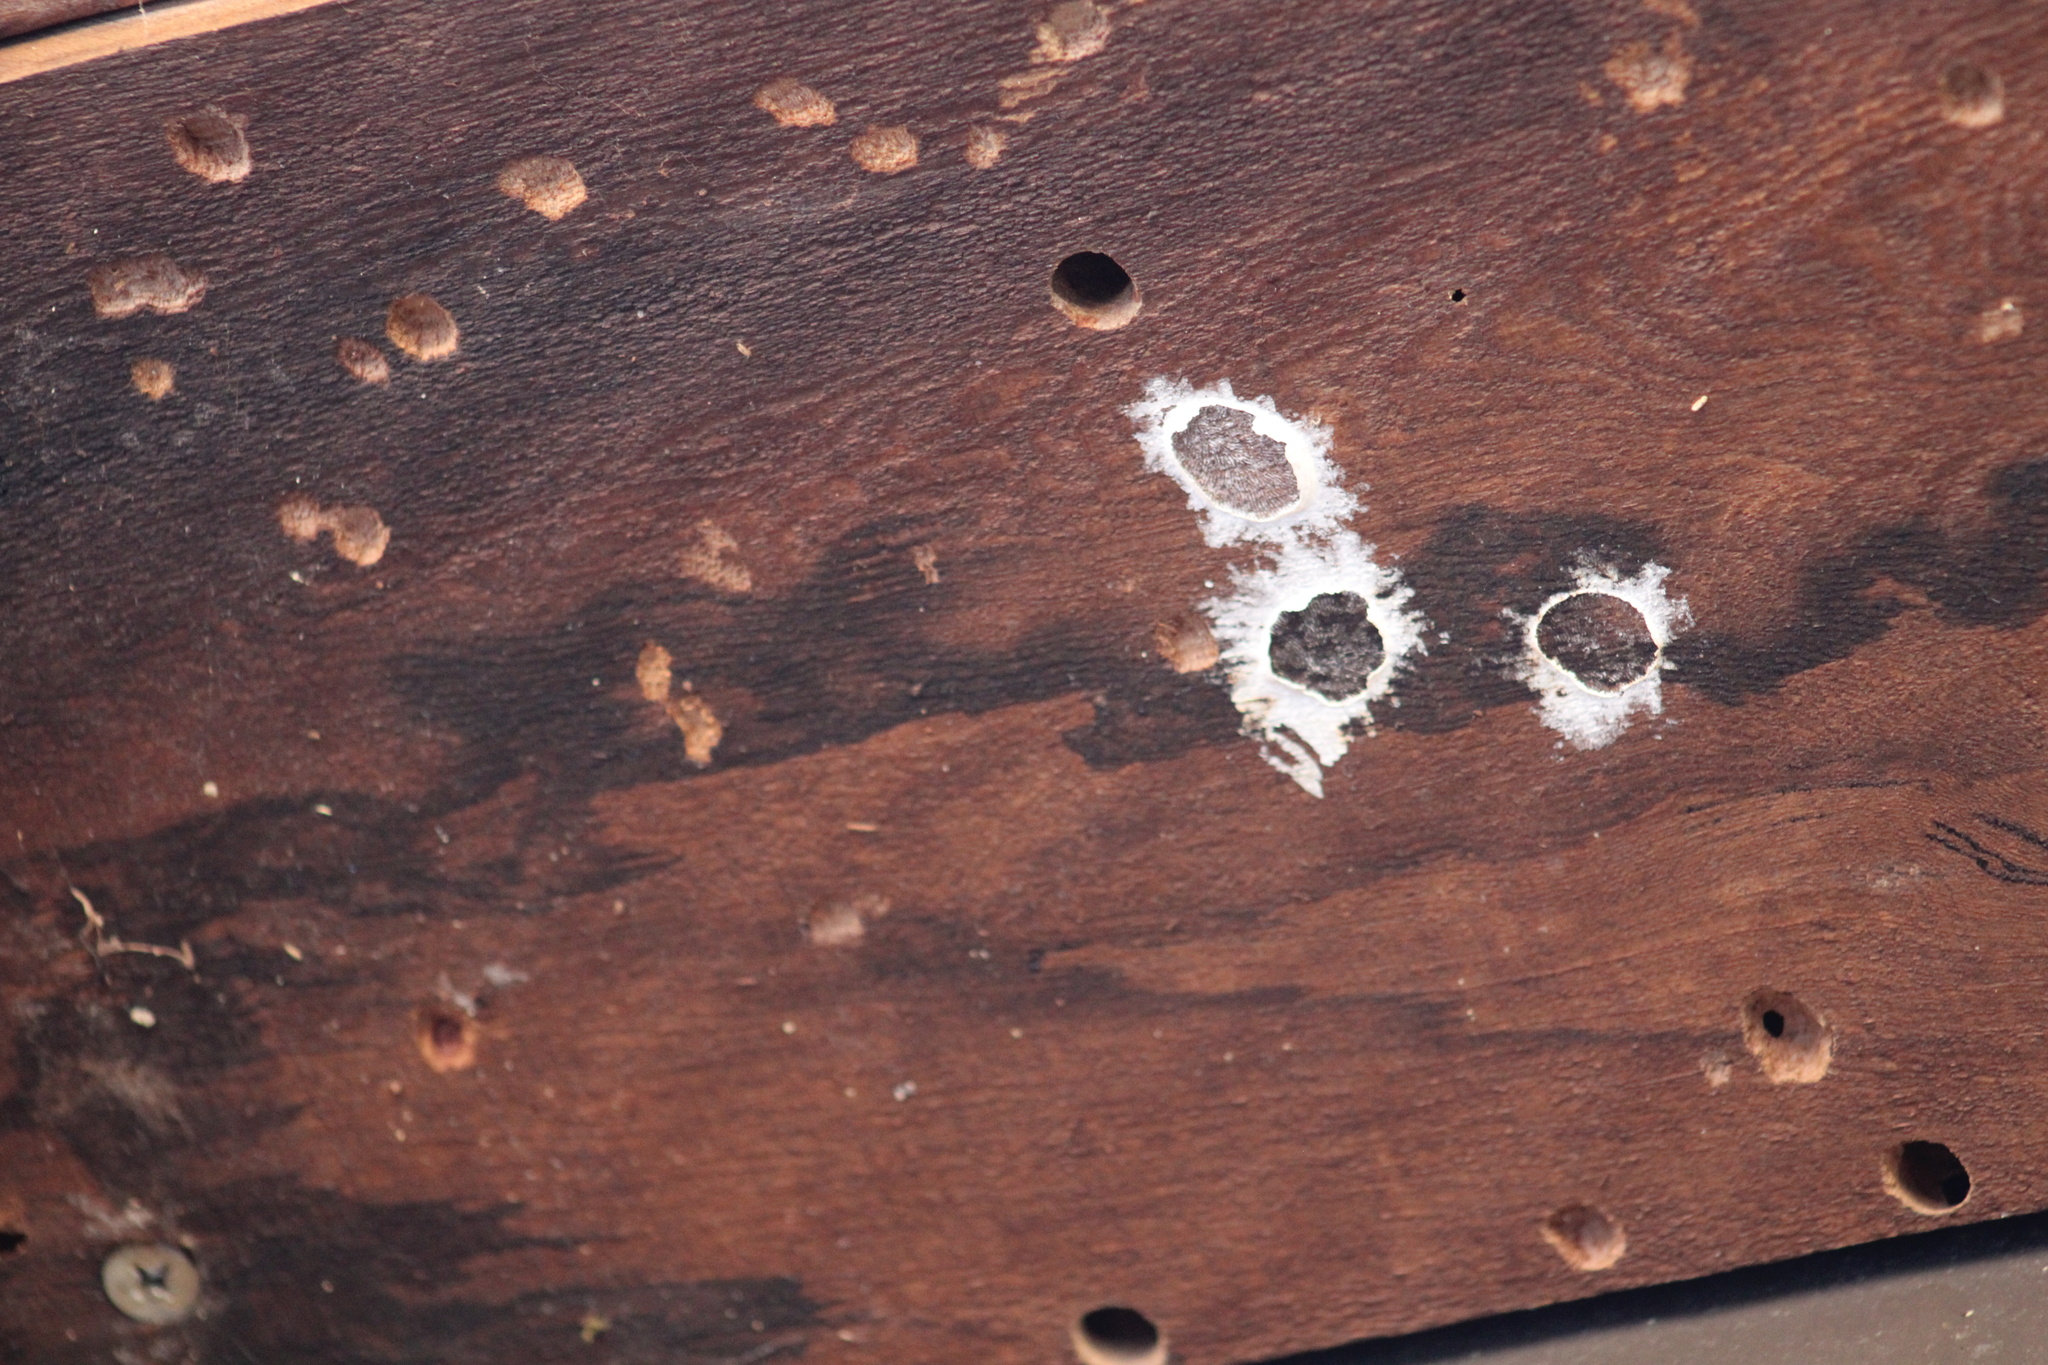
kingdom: Animalia
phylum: Arthropoda
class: Insecta
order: Megaloptera
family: Corydalidae
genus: Corydalus
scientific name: Corydalus cornutus
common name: Dobsonfly
